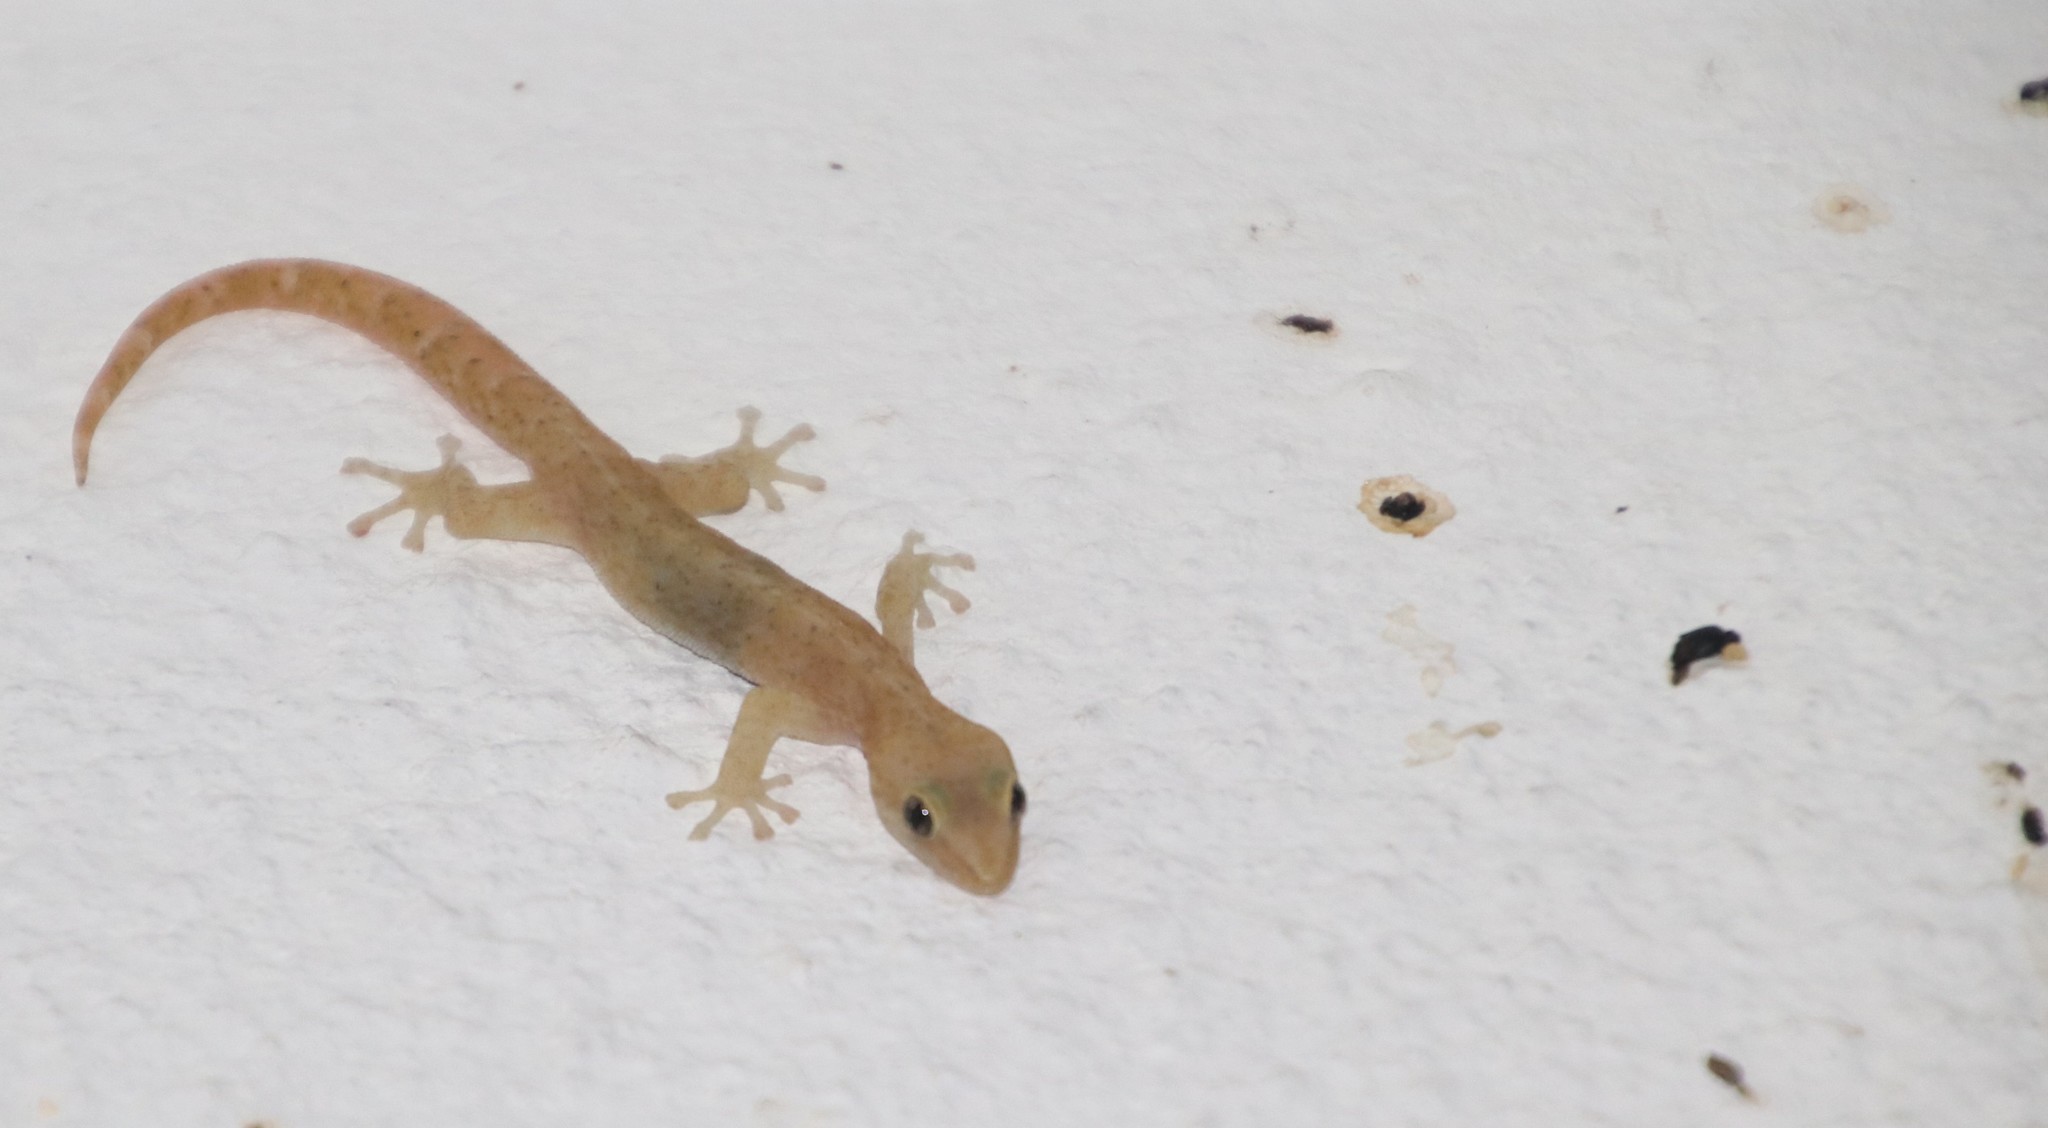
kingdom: Animalia
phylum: Chordata
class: Squamata
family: Gekkonidae
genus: Afrogecko
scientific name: Afrogecko porphyreus
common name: Marbled leaf-toed gecko
